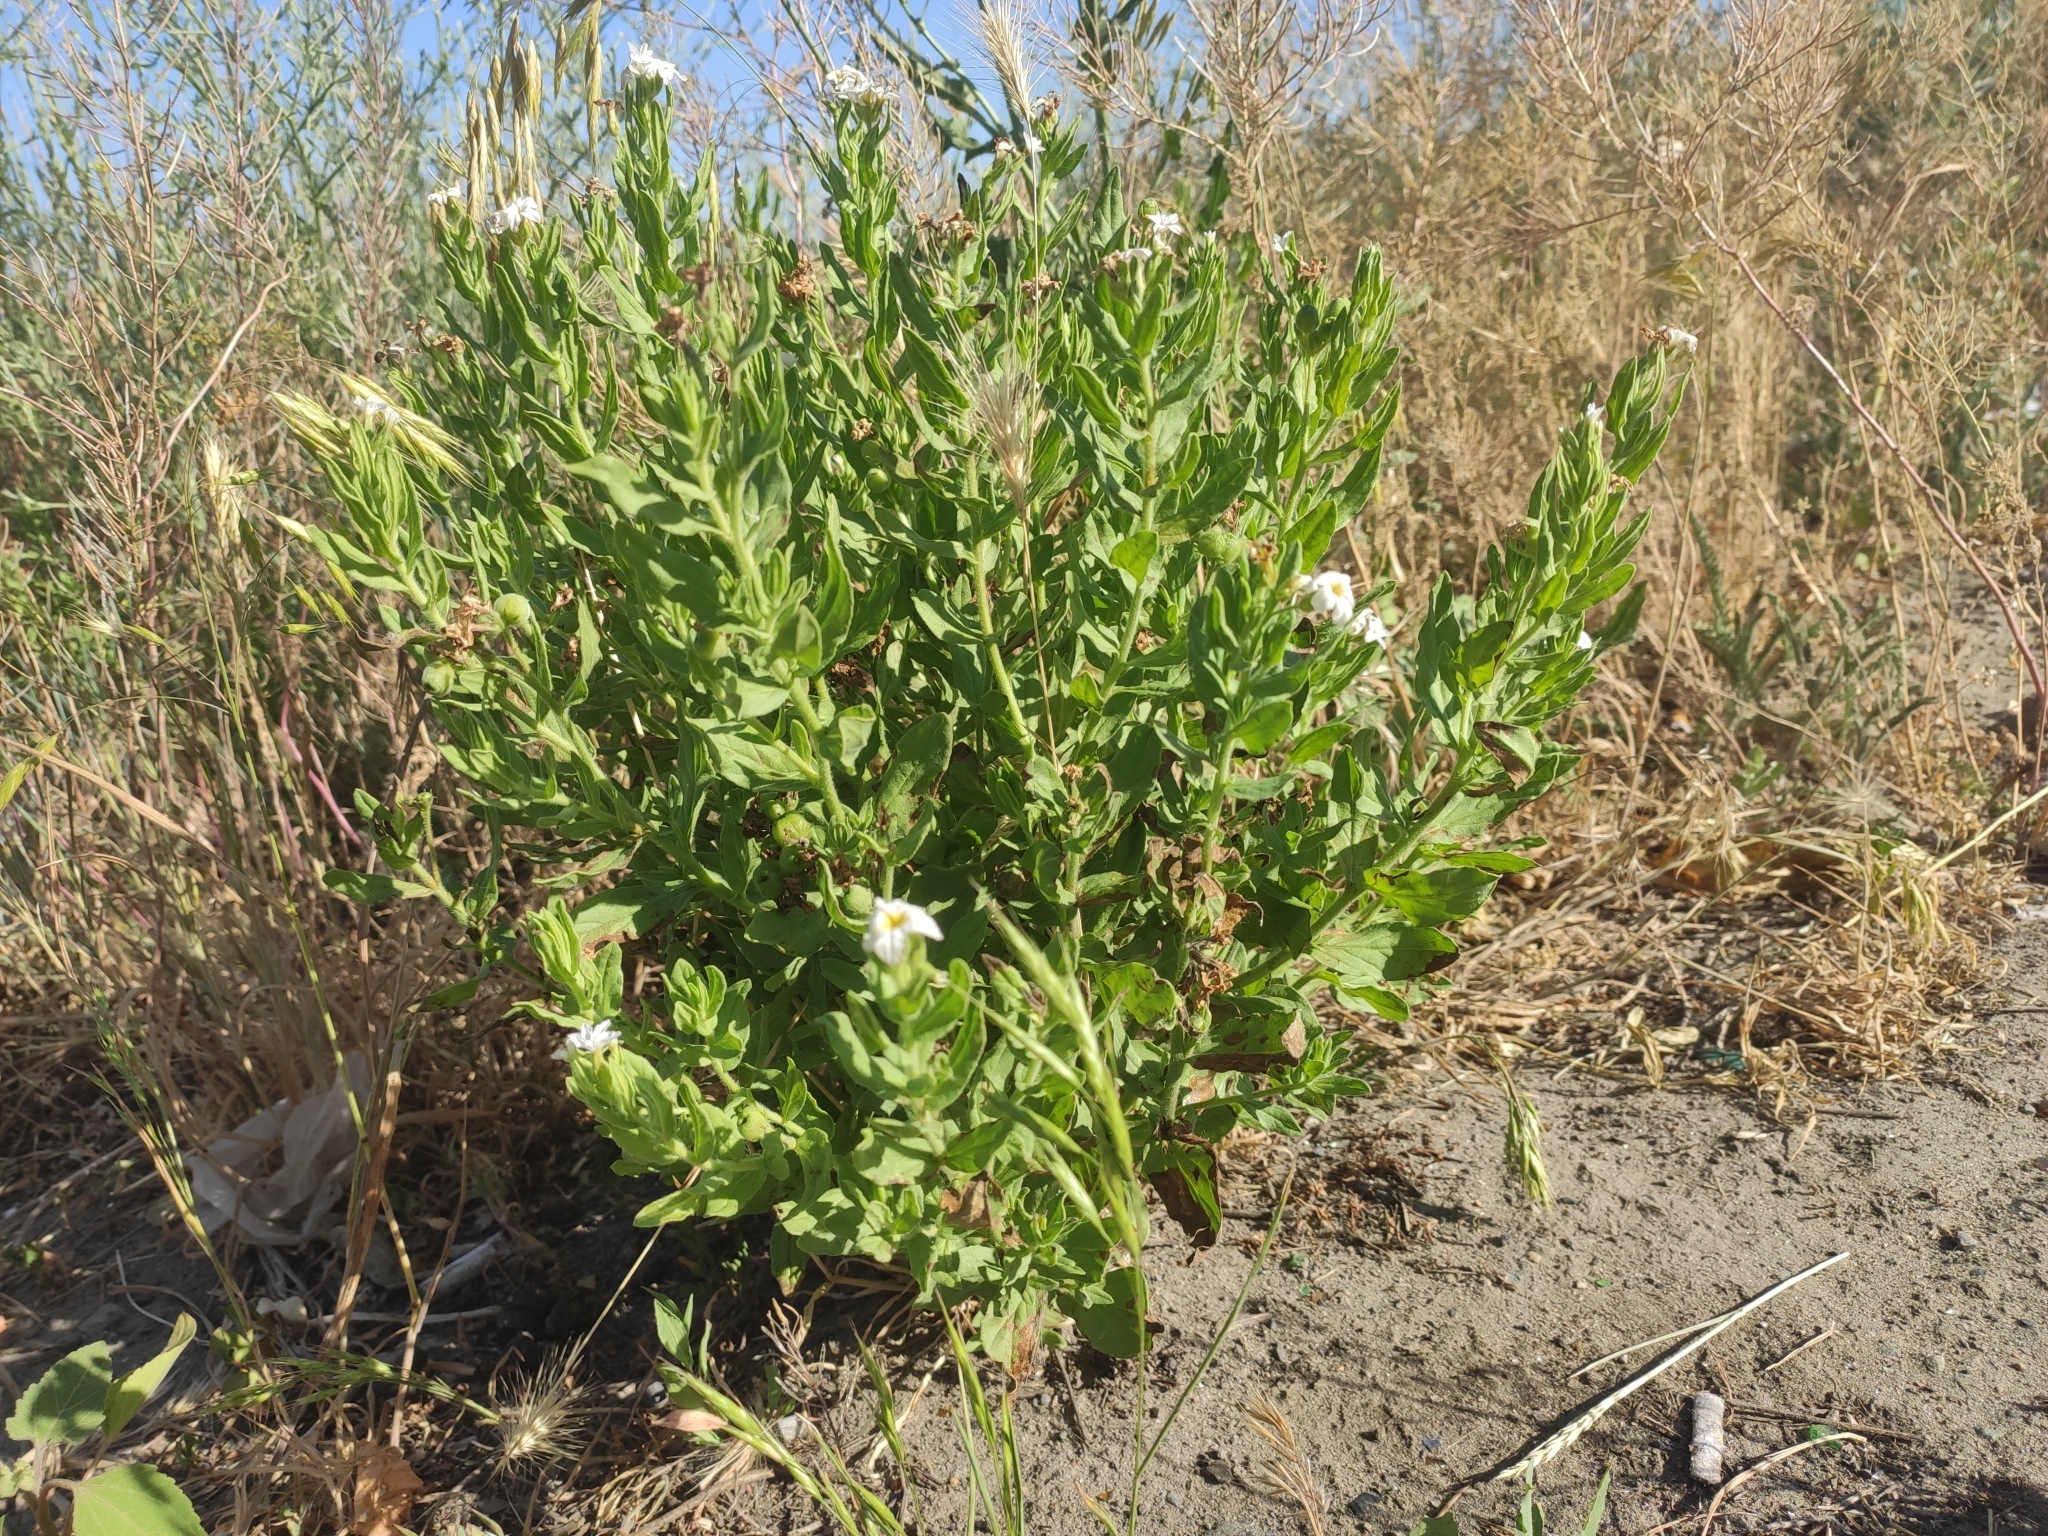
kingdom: Plantae
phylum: Tracheophyta
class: Magnoliopsida
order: Boraginales
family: Heliotropiaceae
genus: Tournefortia
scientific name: Tournefortia sibirica
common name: Siberian sea rosemary
